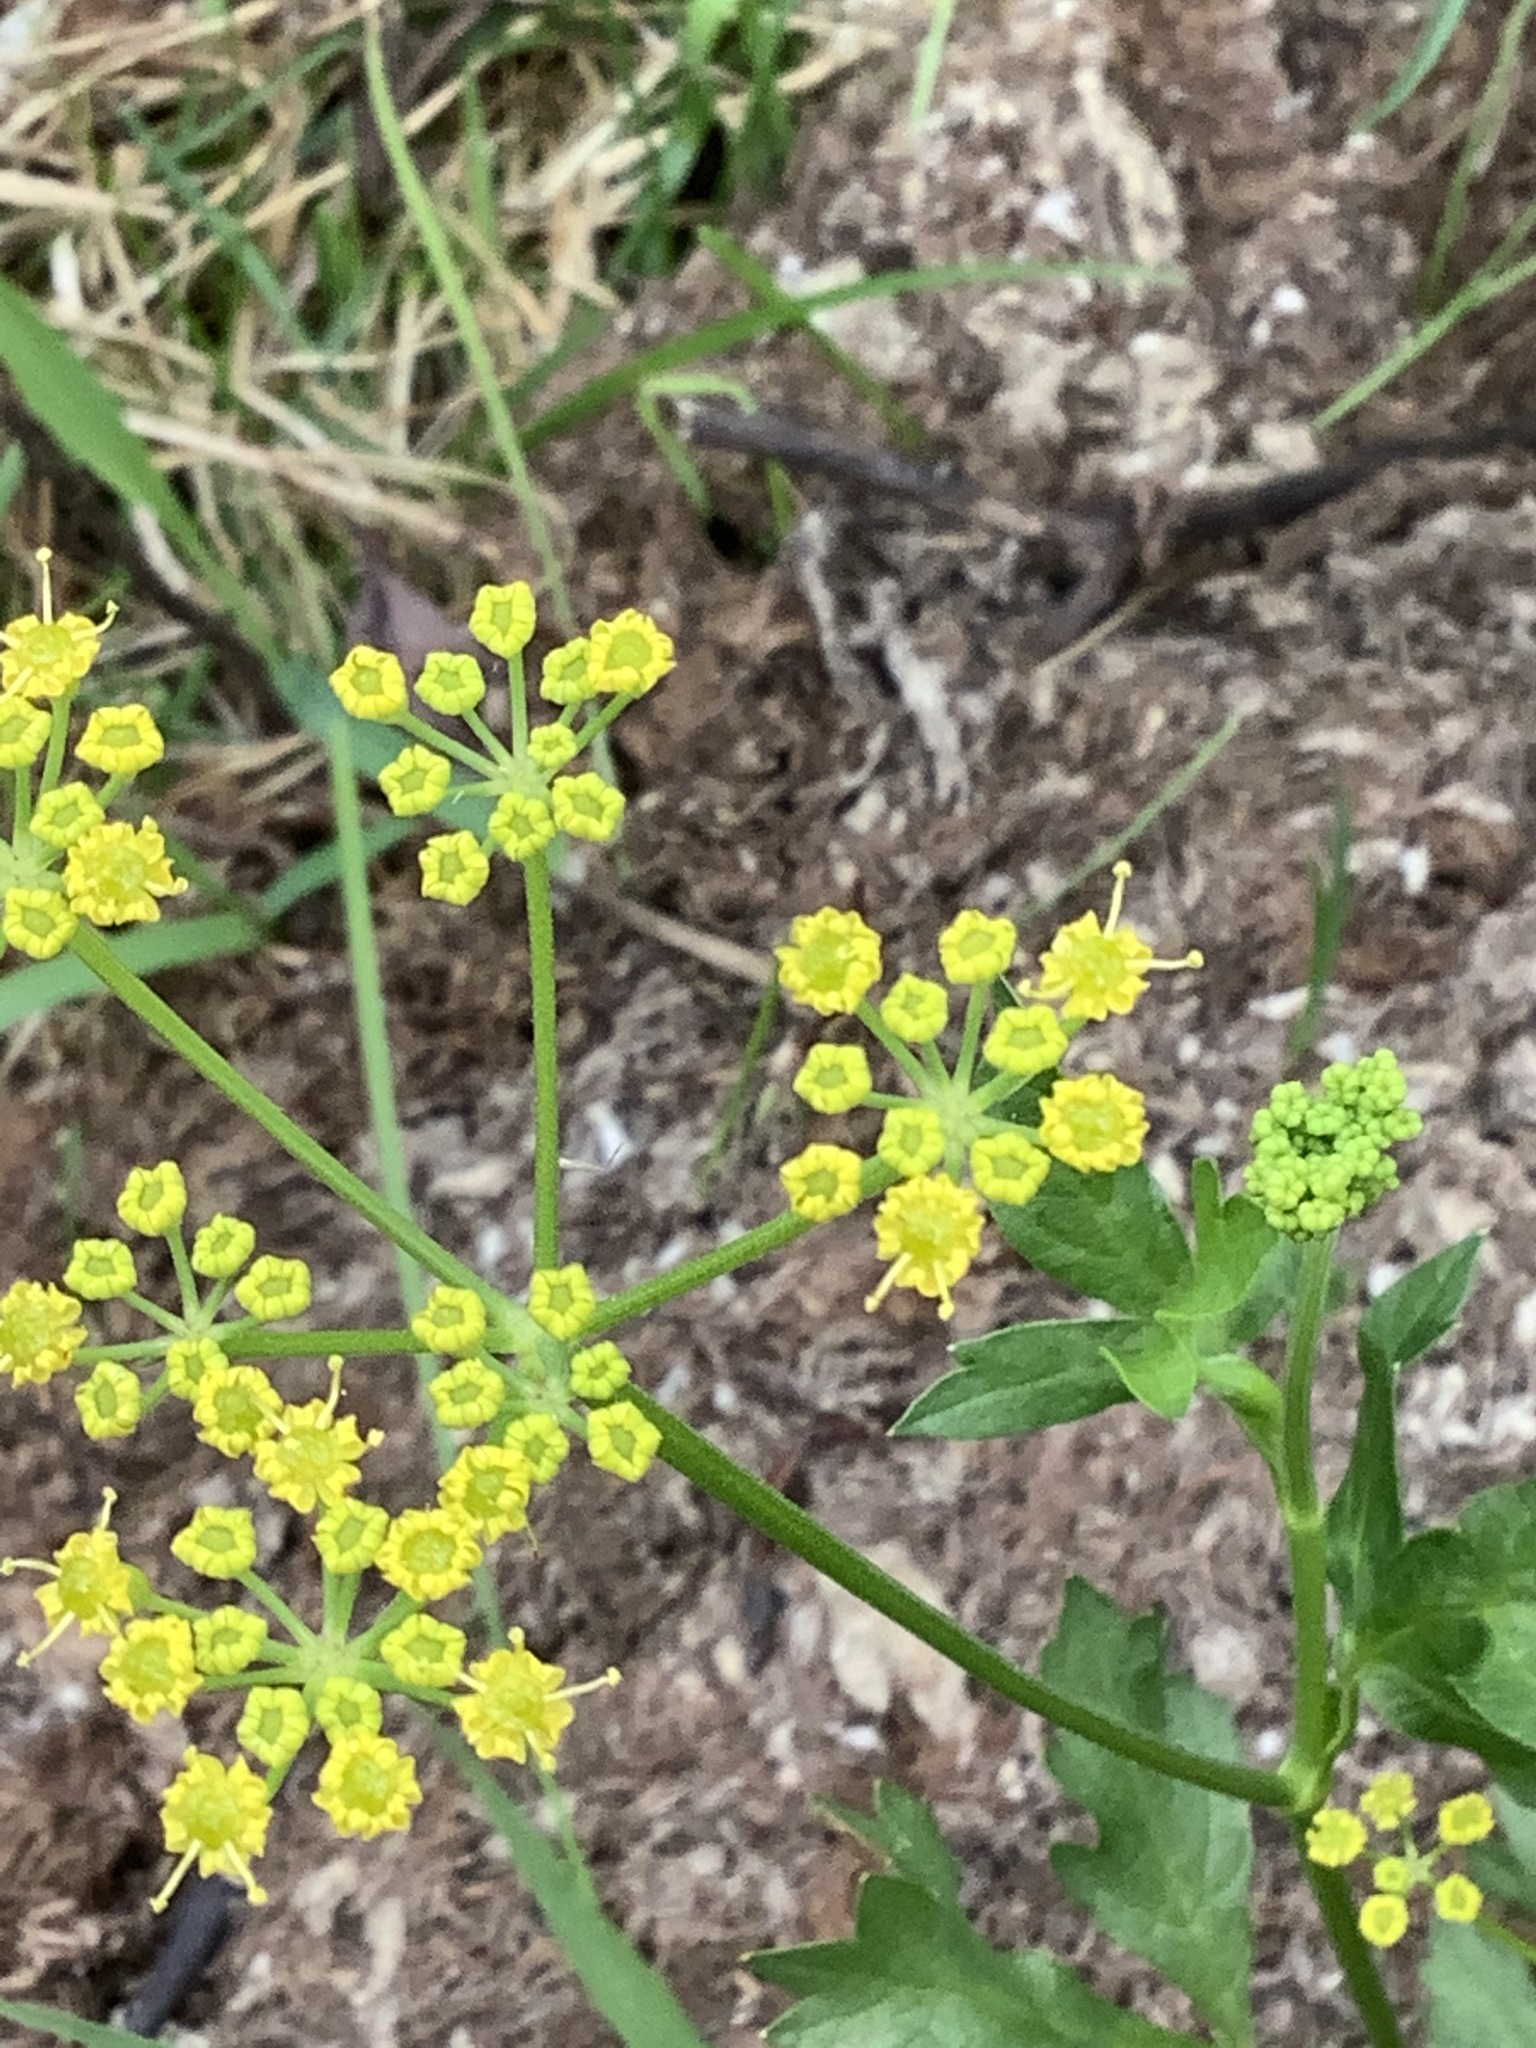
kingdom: Plantae
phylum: Tracheophyta
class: Magnoliopsida
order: Apiales
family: Apiaceae
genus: Pastinaca
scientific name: Pastinaca sativa
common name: Wild parsnip
